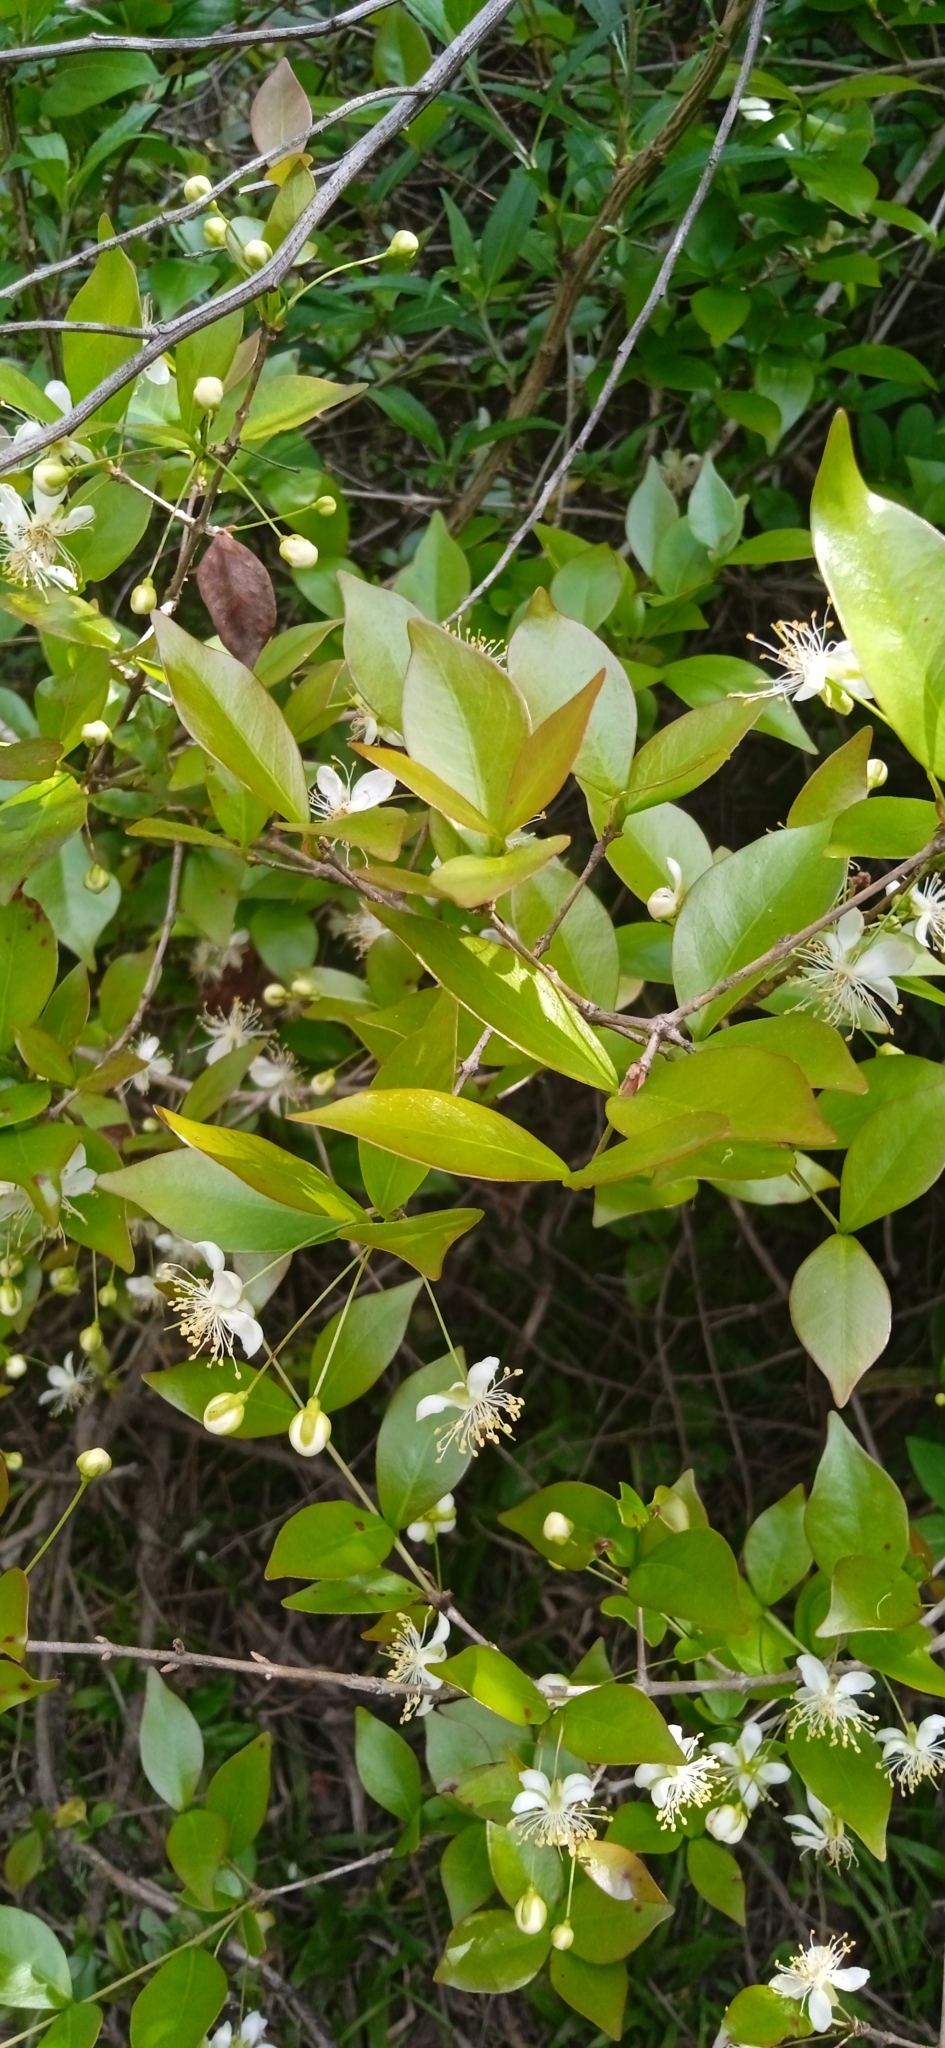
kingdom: Plantae
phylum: Tracheophyta
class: Magnoliopsida
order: Myrtales
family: Myrtaceae
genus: Eugenia
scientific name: Eugenia uniflora
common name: Surinam cherry
